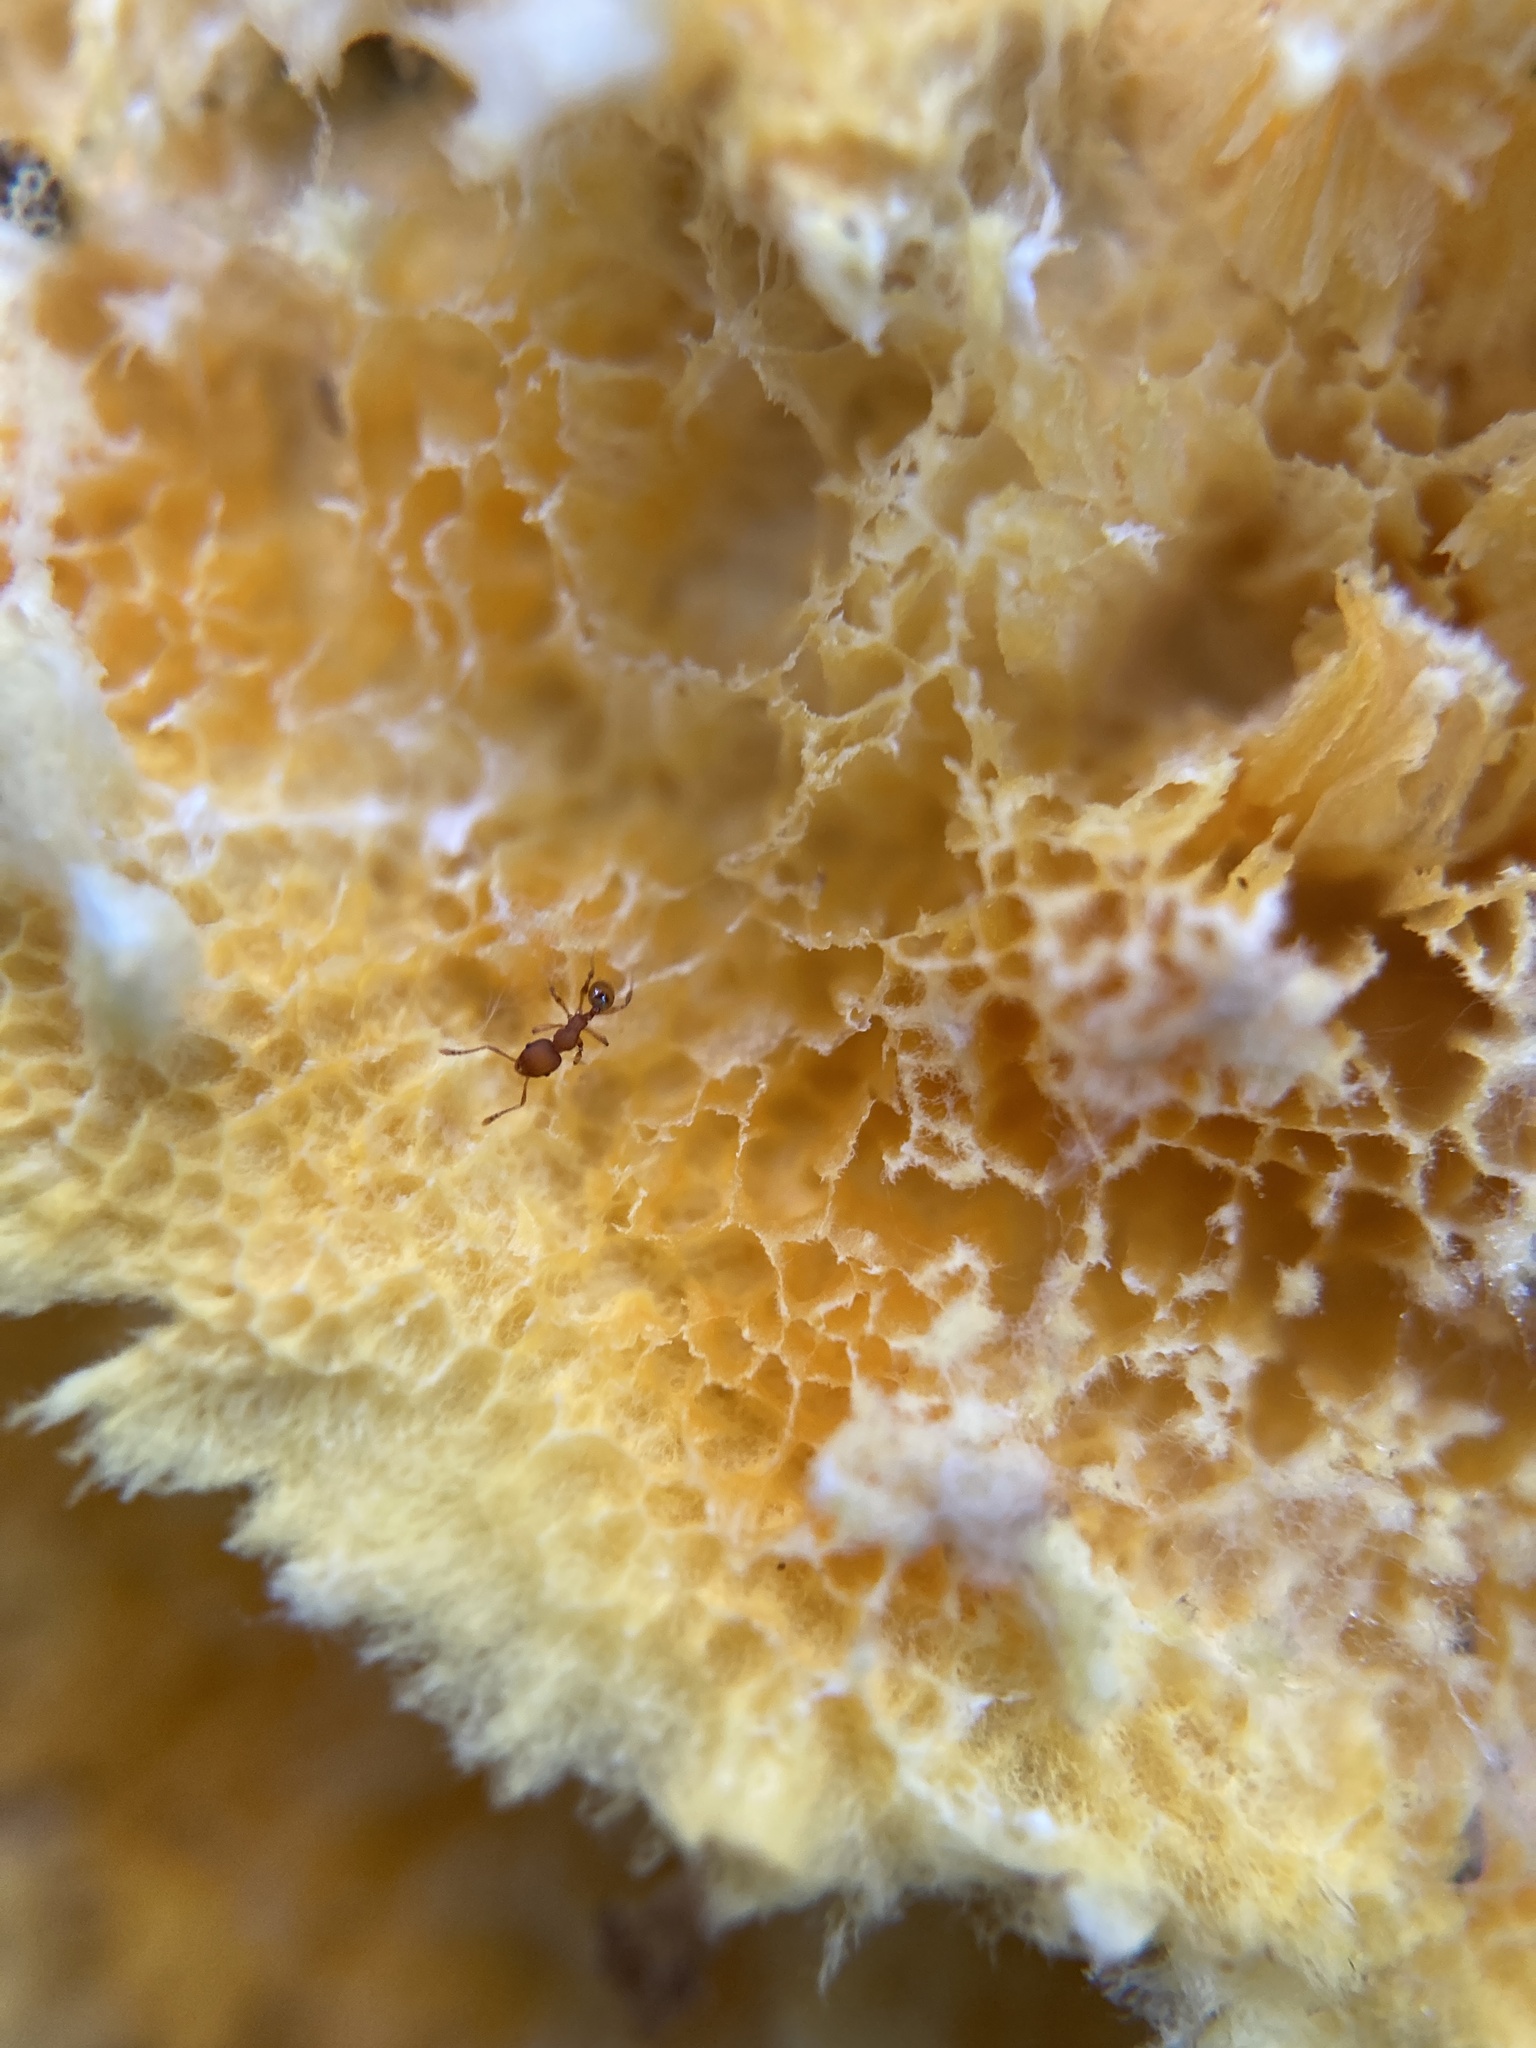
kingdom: Animalia
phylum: Arthropoda
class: Insecta
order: Hymenoptera
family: Formicidae
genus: Pheidole
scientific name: Pheidole navigans
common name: Navigating big-headed ant
